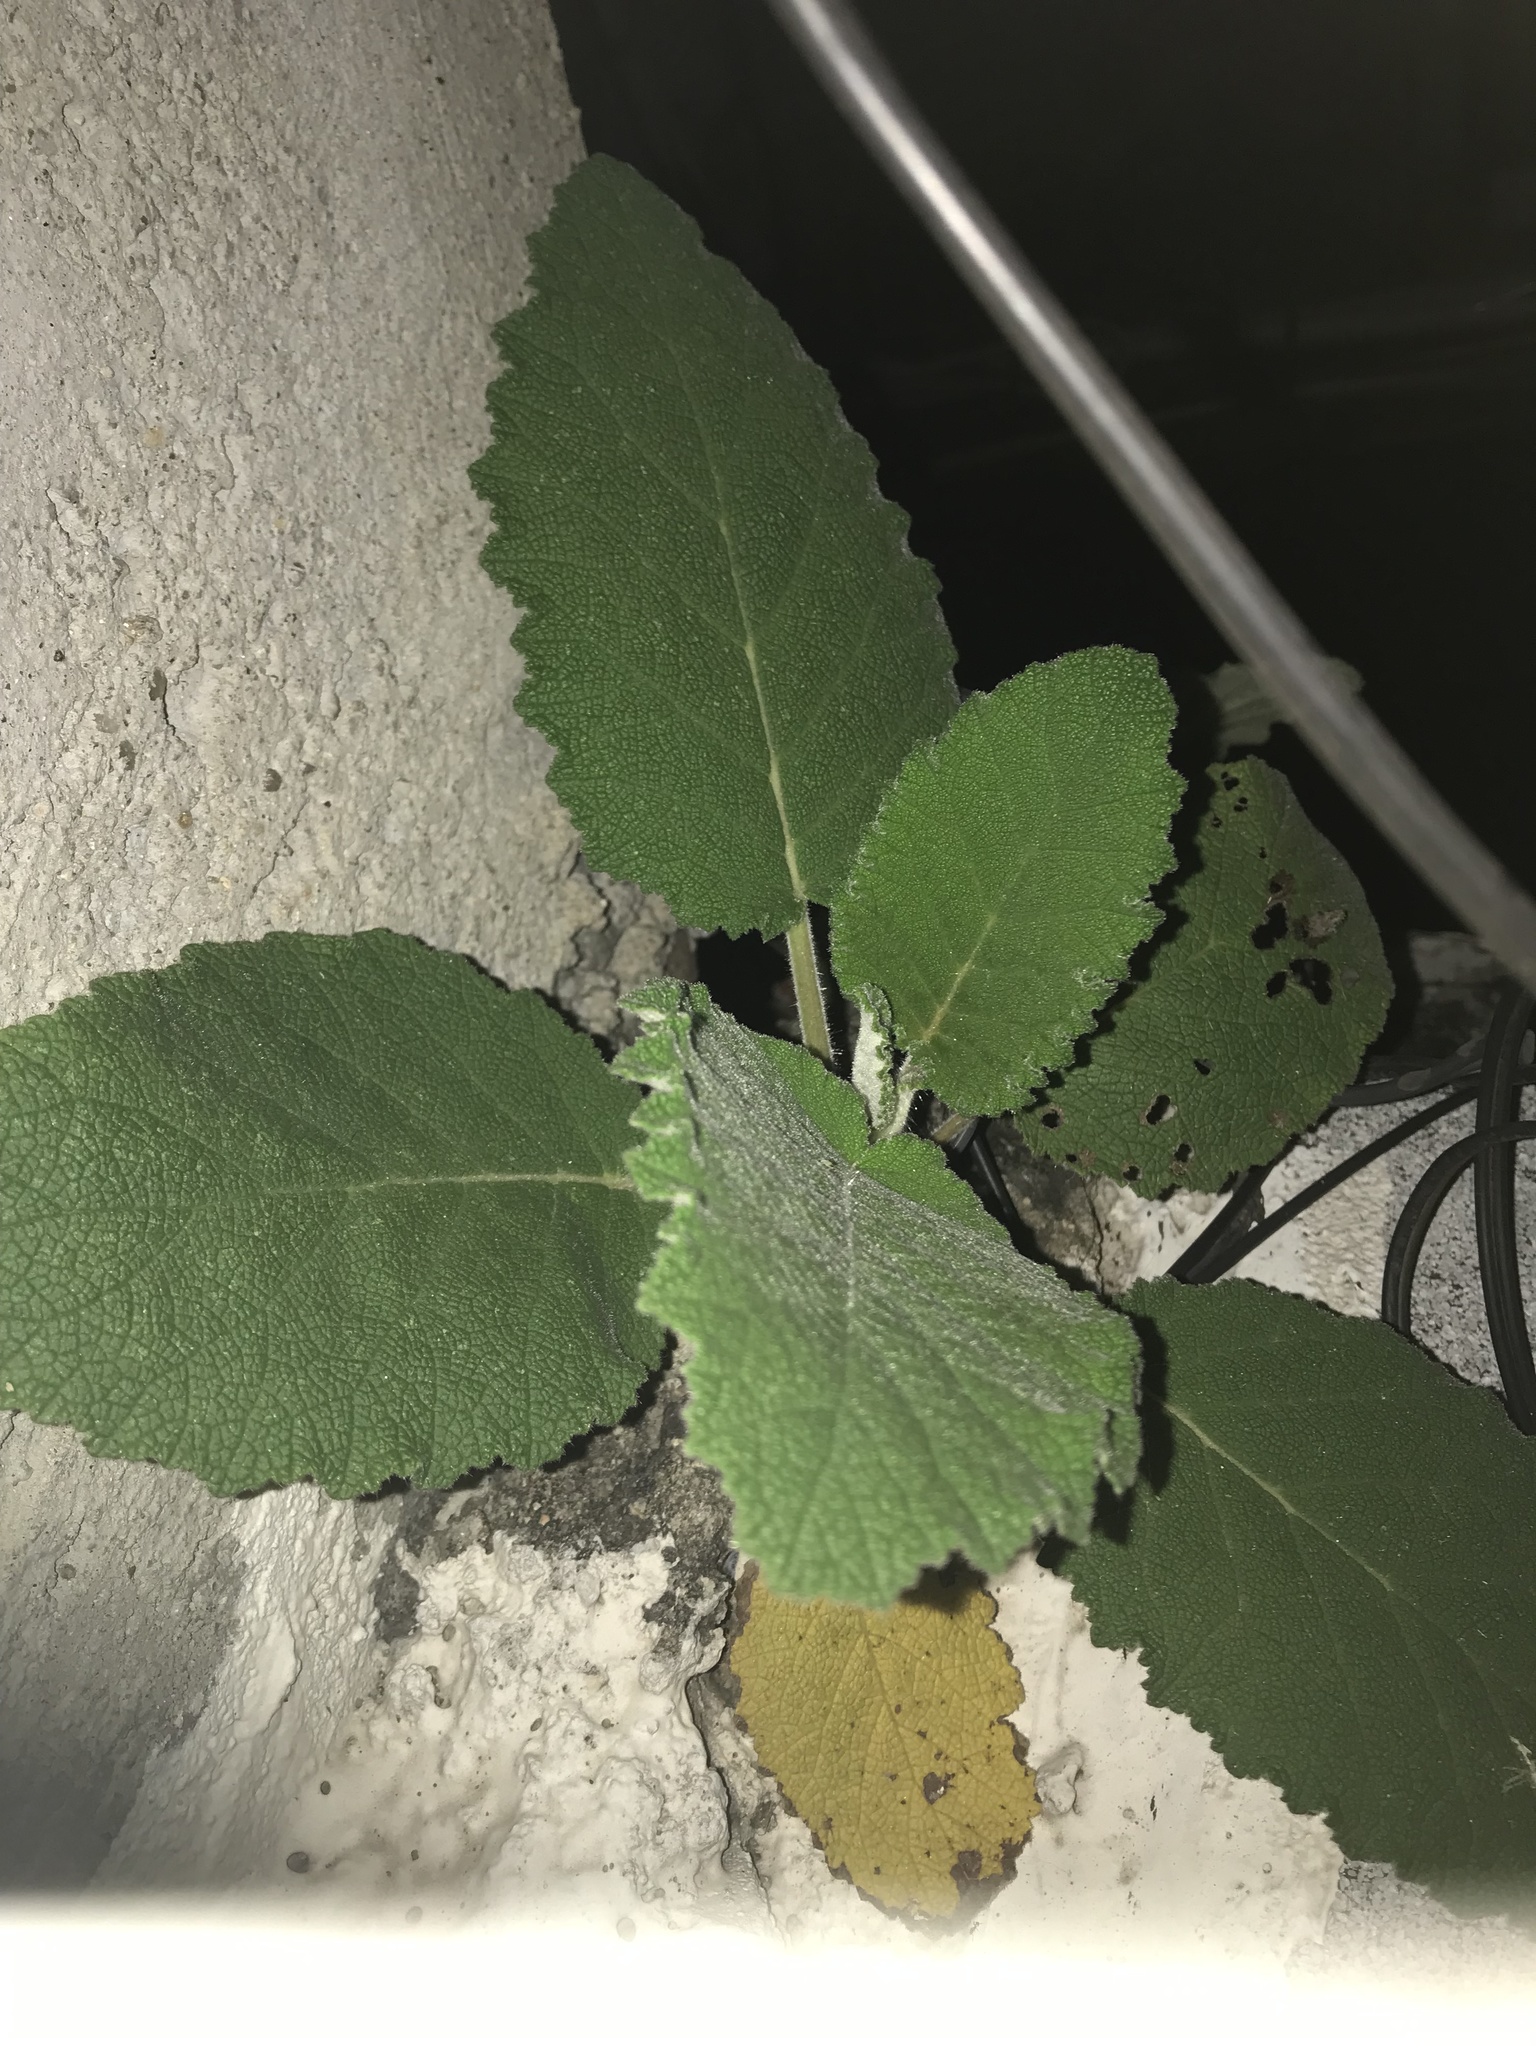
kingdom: Plantae
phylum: Tracheophyta
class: Magnoliopsida
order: Boraginales
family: Namaceae
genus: Wigandia
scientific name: Wigandia urens
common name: Caracus wigandia
